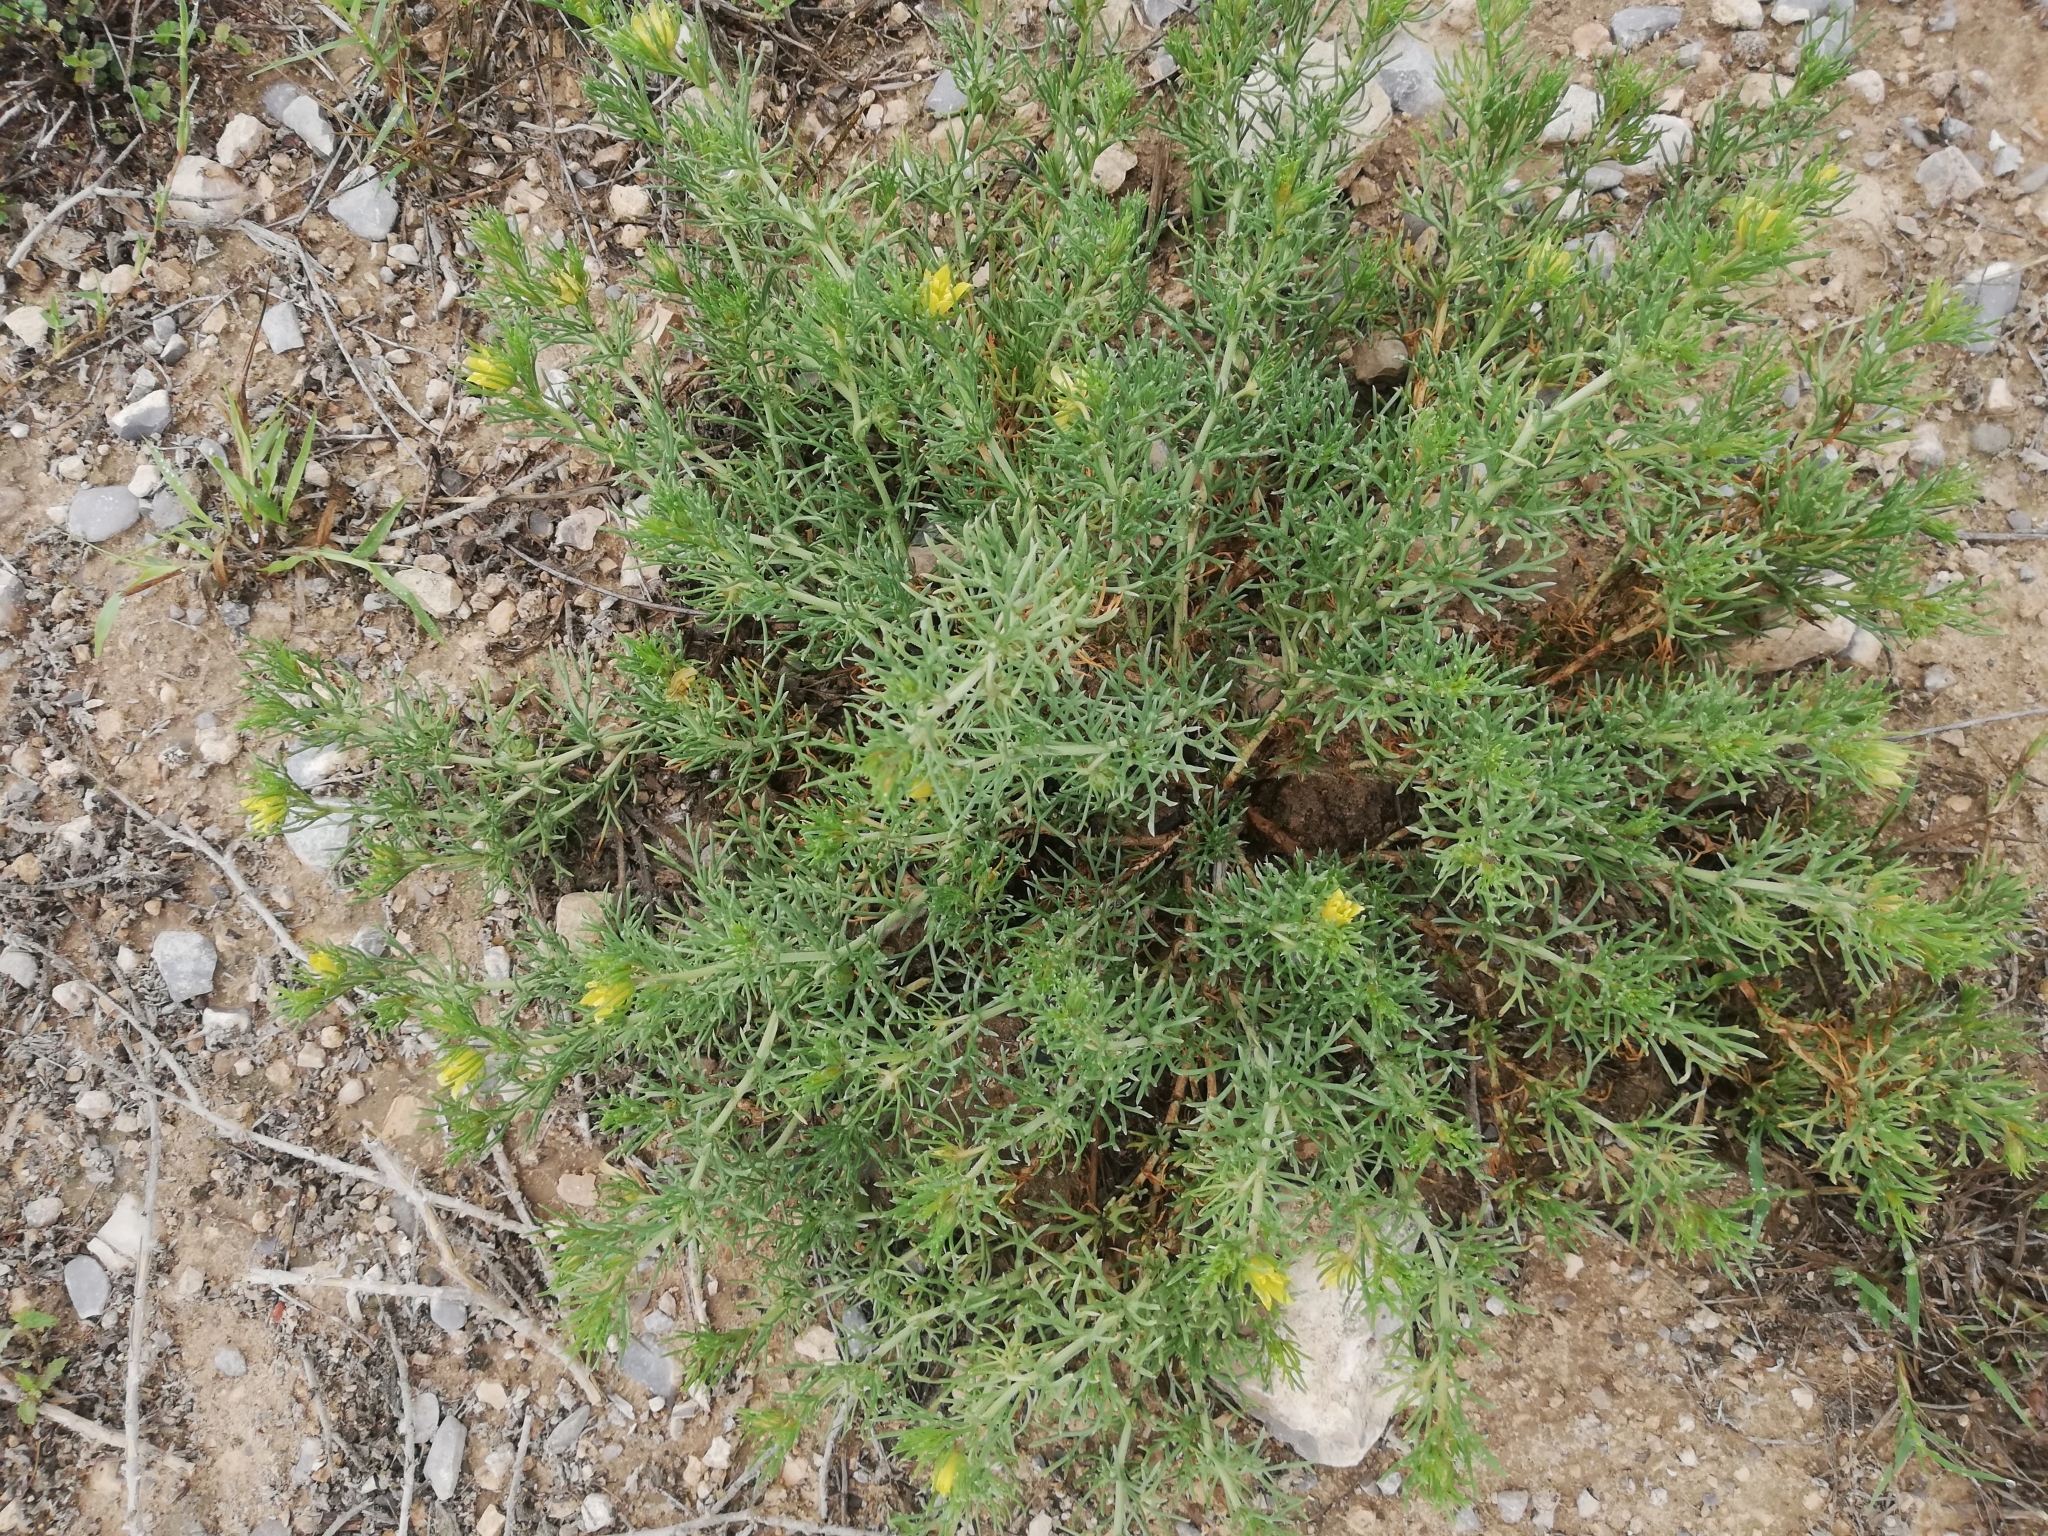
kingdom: Plantae
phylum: Tracheophyta
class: Magnoliopsida
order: Sapindales
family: Tetradiclidaceae
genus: Peganum
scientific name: Peganum mexicanum
